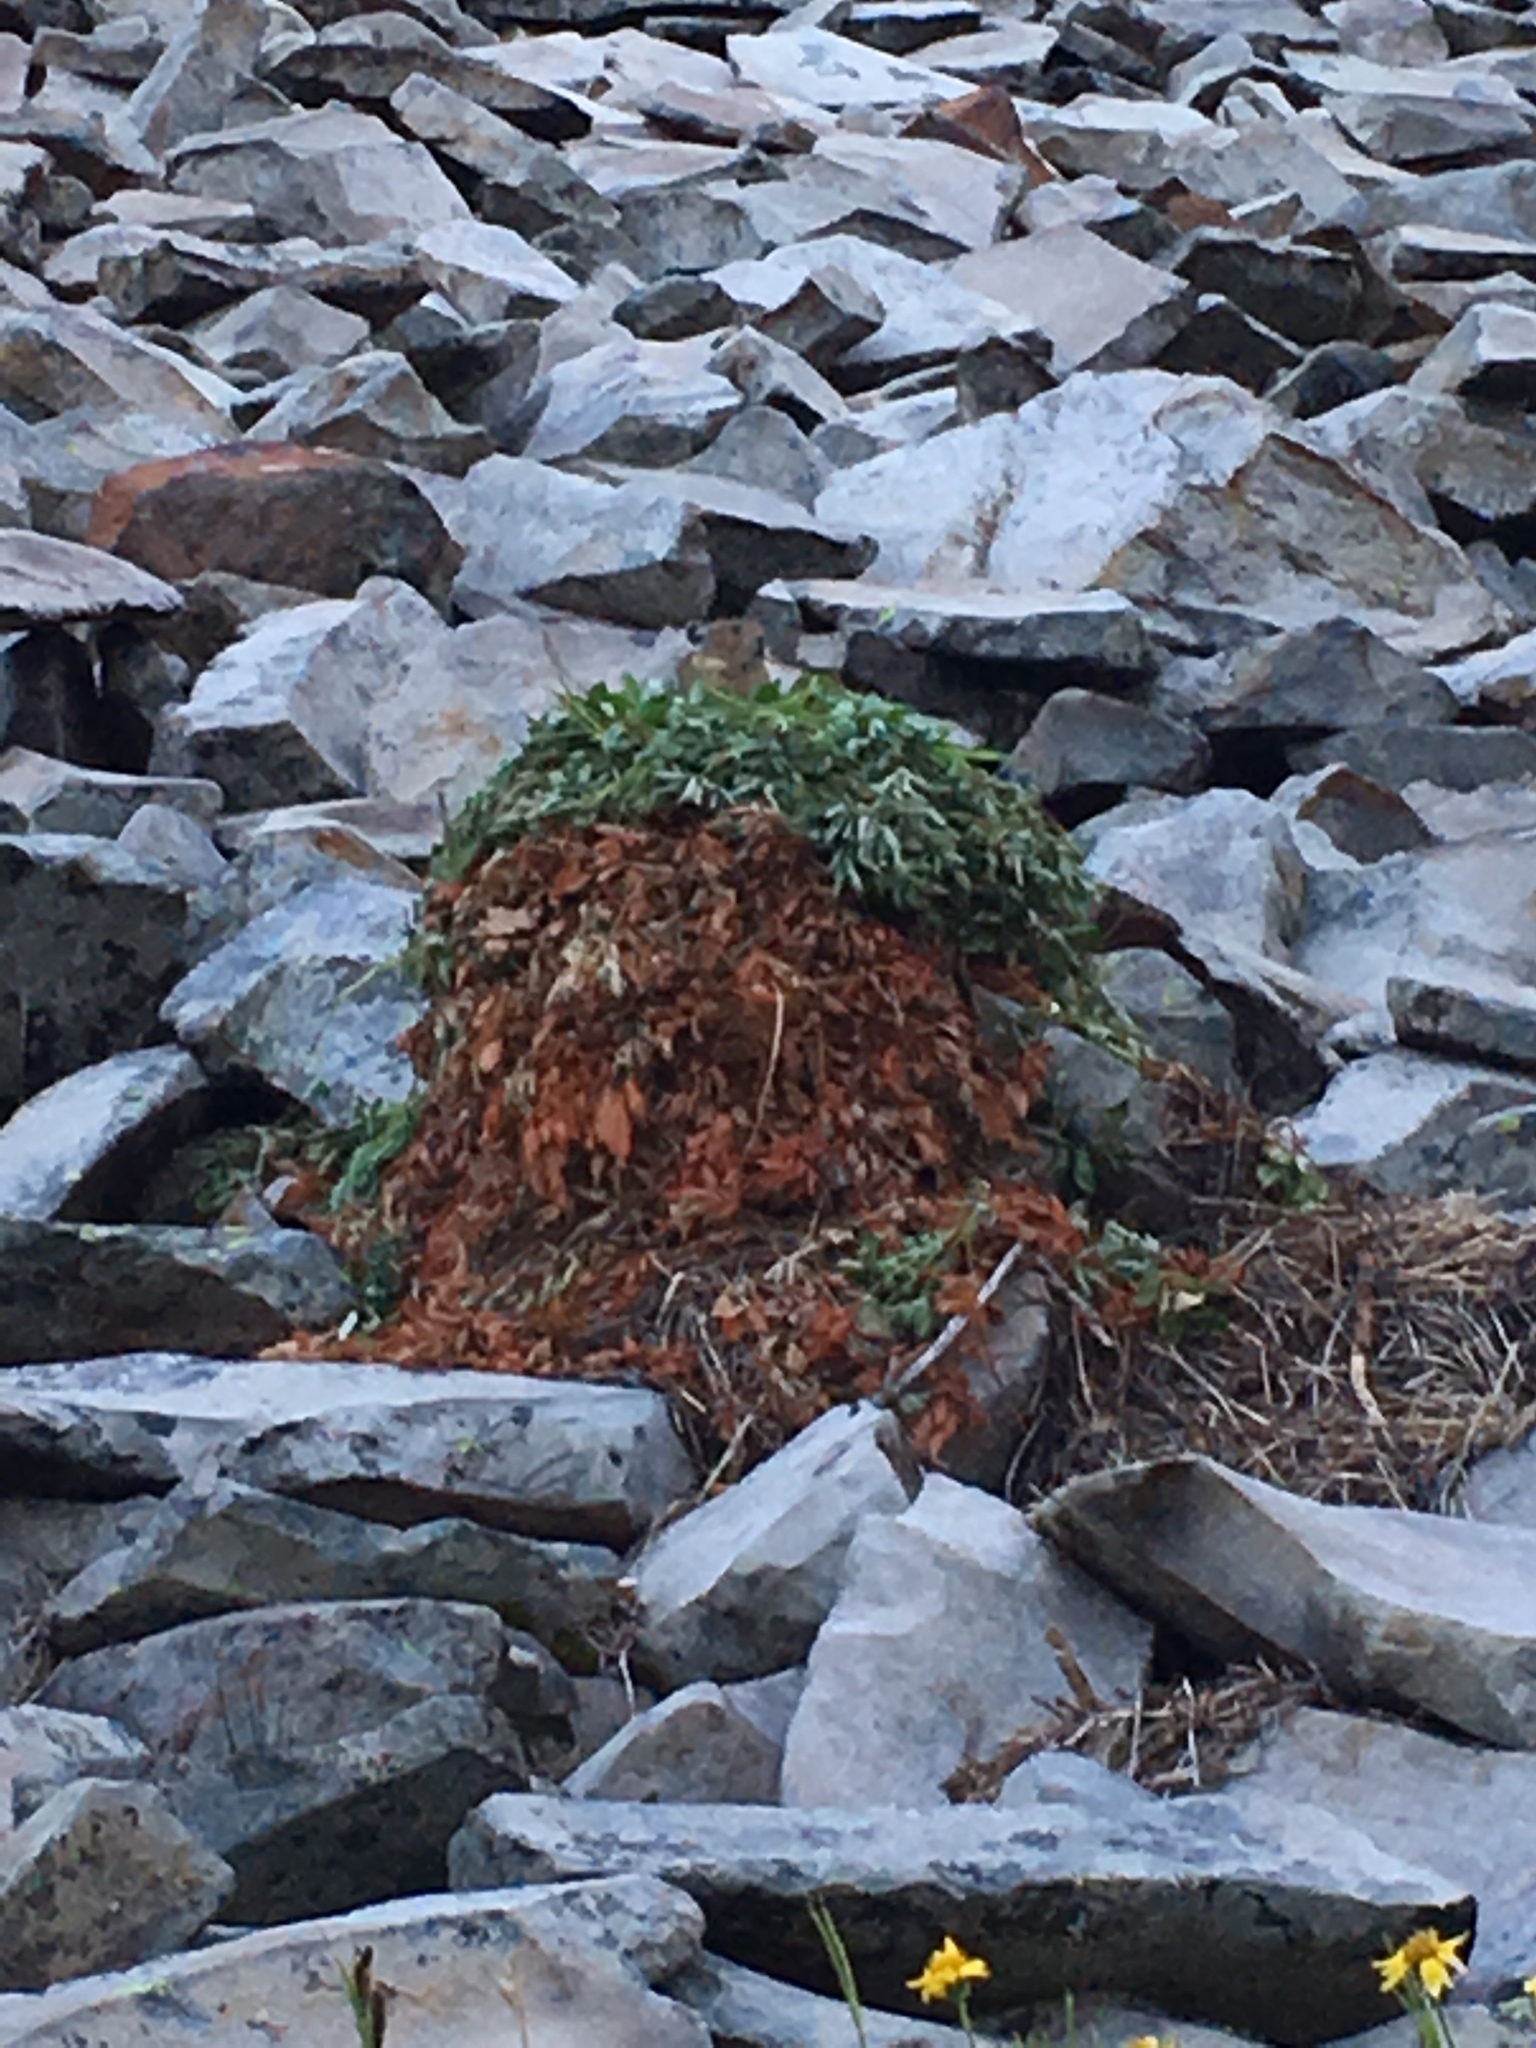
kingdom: Animalia
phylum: Chordata
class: Mammalia
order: Lagomorpha
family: Ochotonidae
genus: Ochotona
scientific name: Ochotona princeps
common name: American pika
